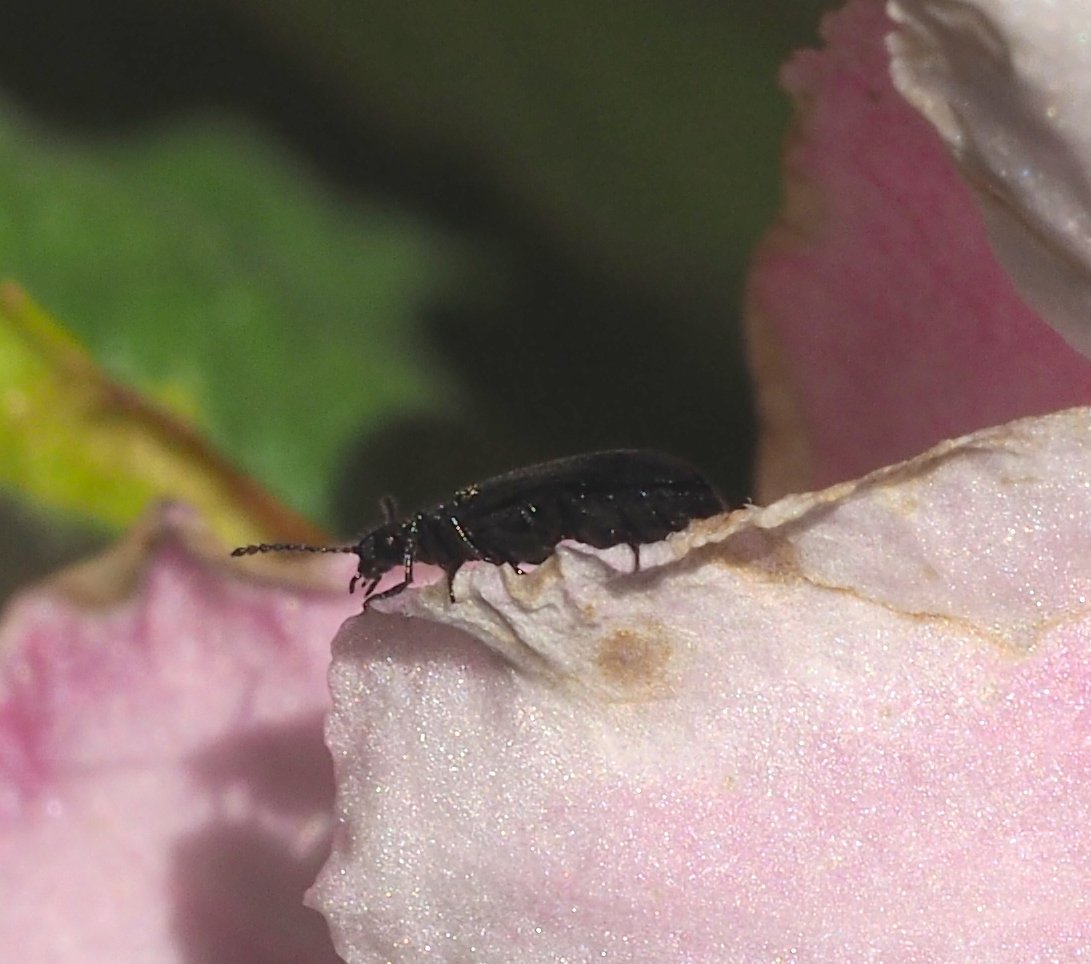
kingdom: Animalia
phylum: Arthropoda
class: Insecta
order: Coleoptera
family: Melyridae
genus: Dasytes
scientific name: Dasytes
